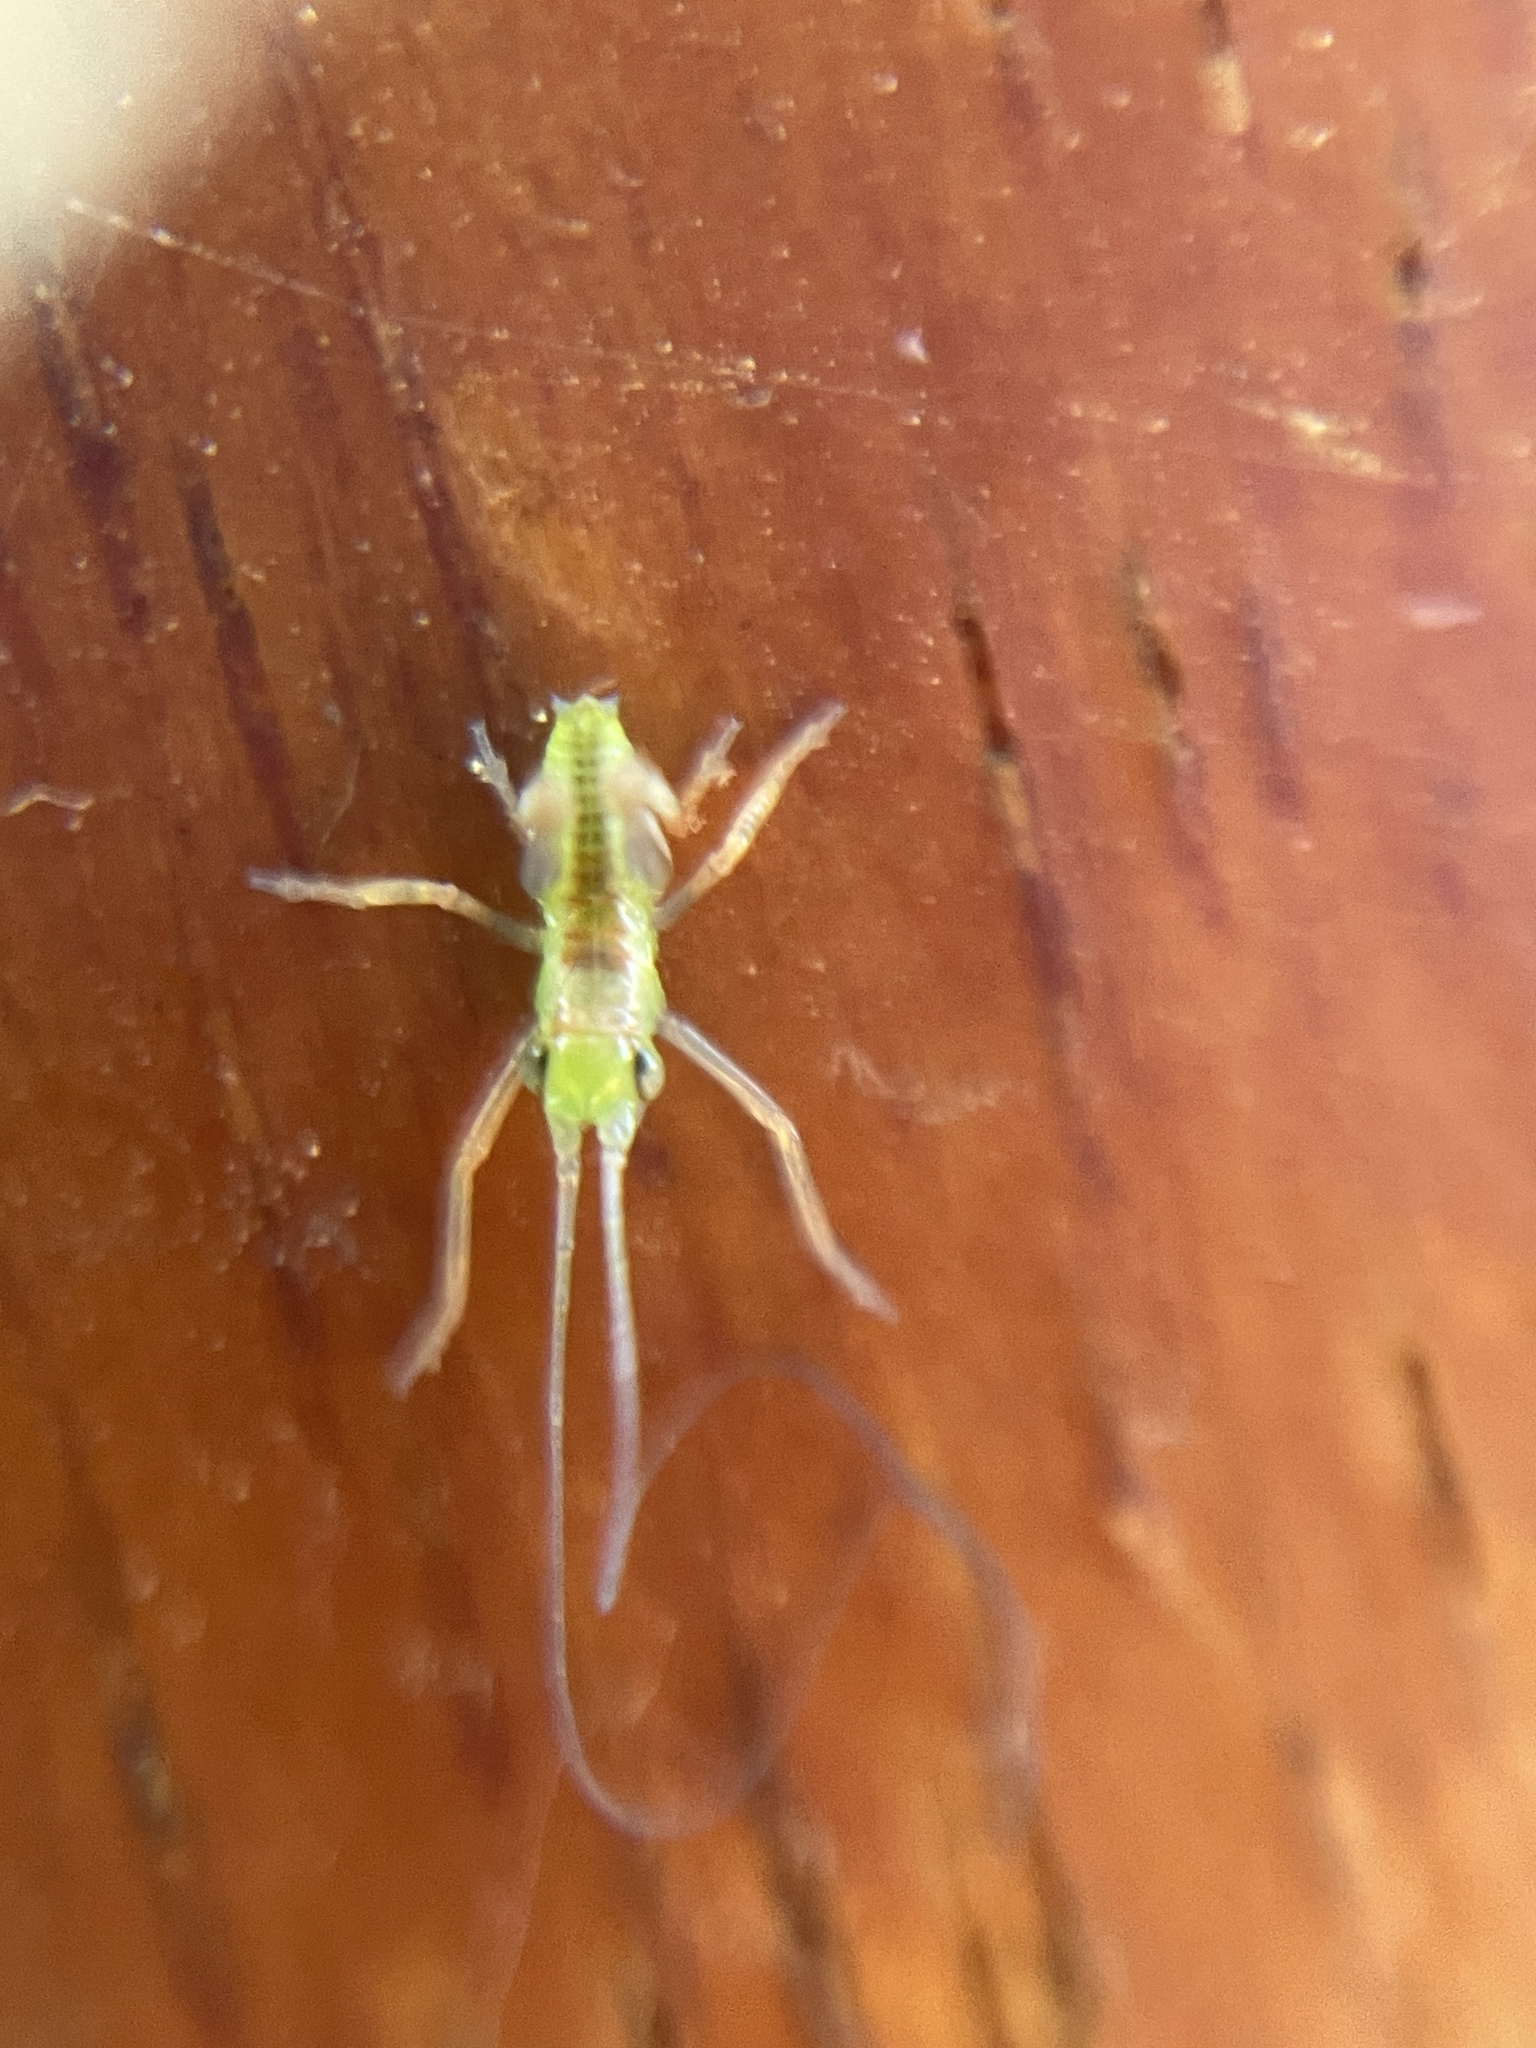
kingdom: Animalia
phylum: Arthropoda
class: Insecta
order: Orthoptera
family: Tettigoniidae
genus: Conocephalomima
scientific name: Conocephalomima barameda
